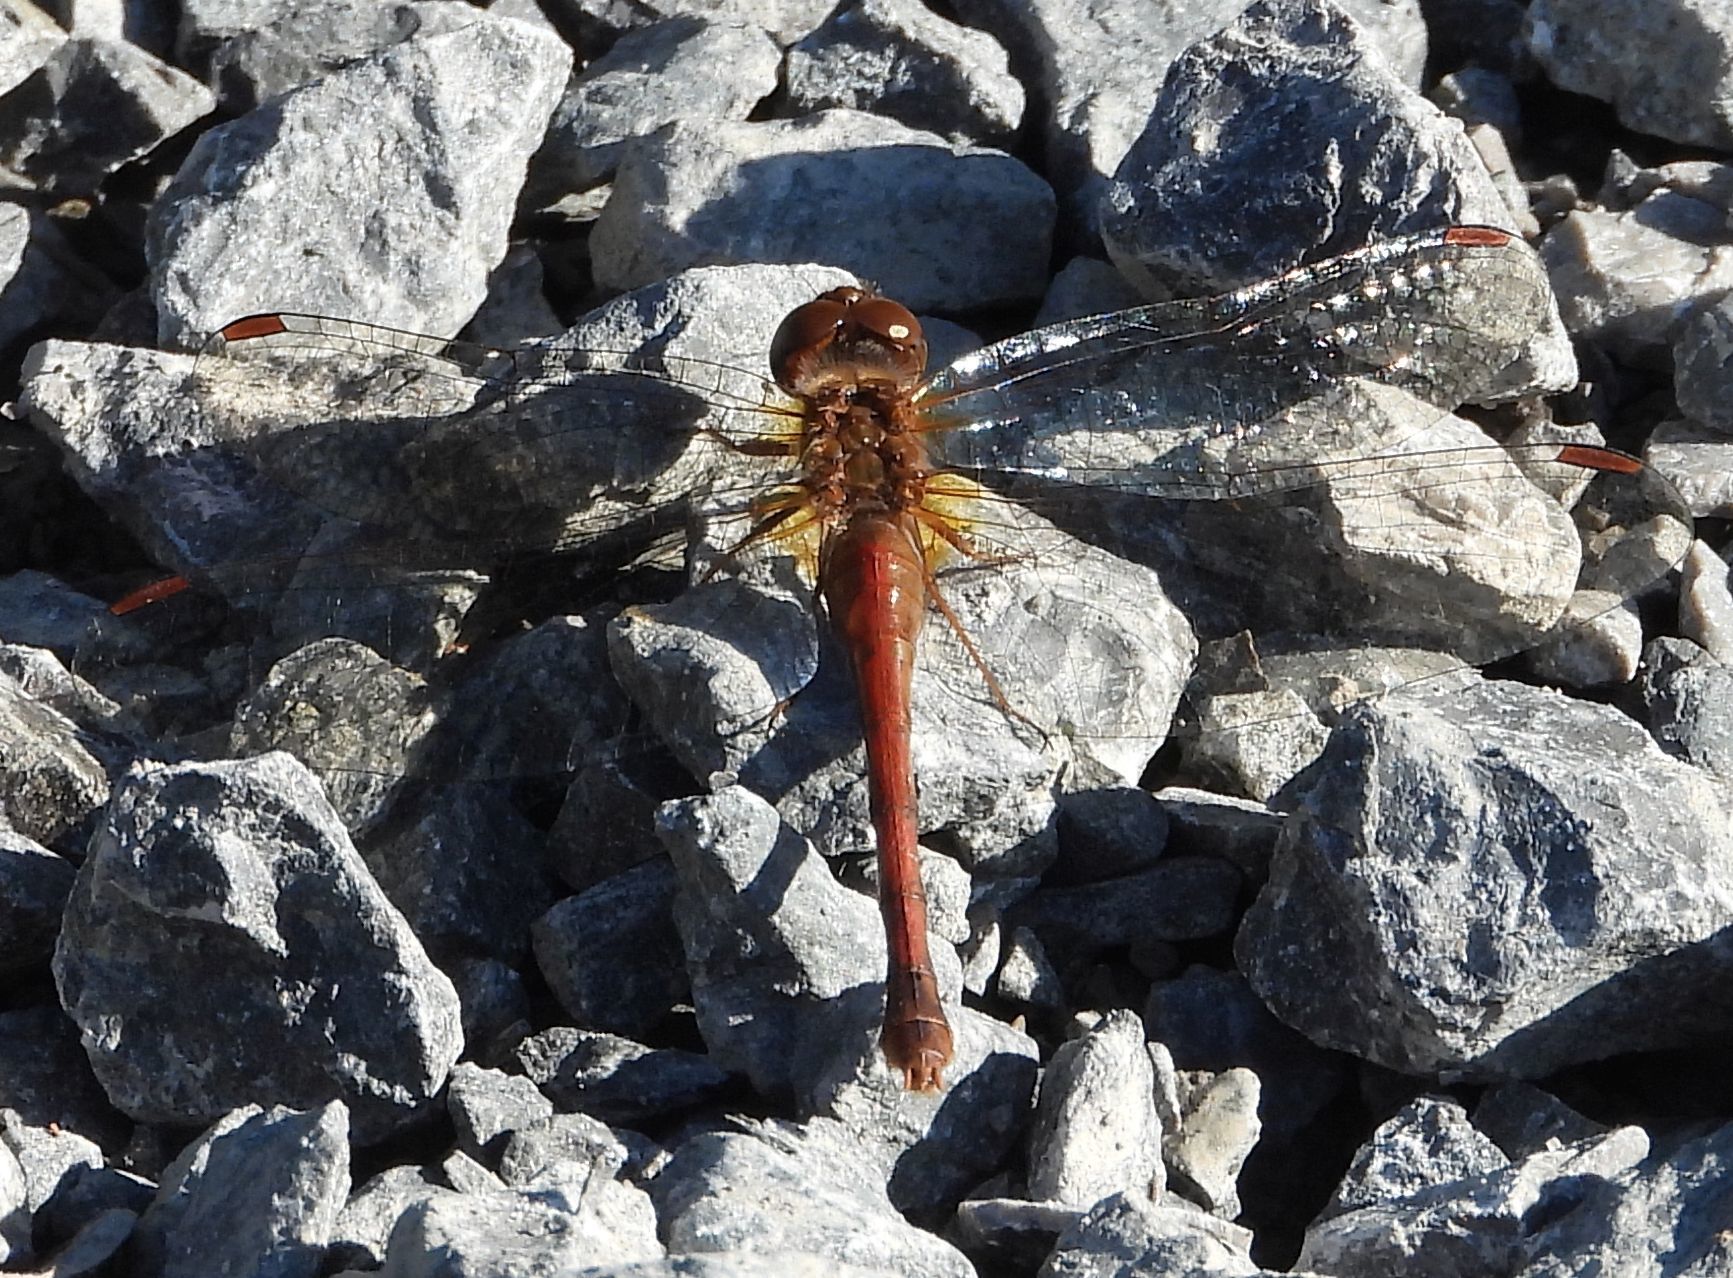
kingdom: Animalia
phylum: Arthropoda
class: Insecta
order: Odonata
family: Libellulidae
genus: Sympetrum
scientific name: Sympetrum vicinum
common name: Autumn meadowhawk
